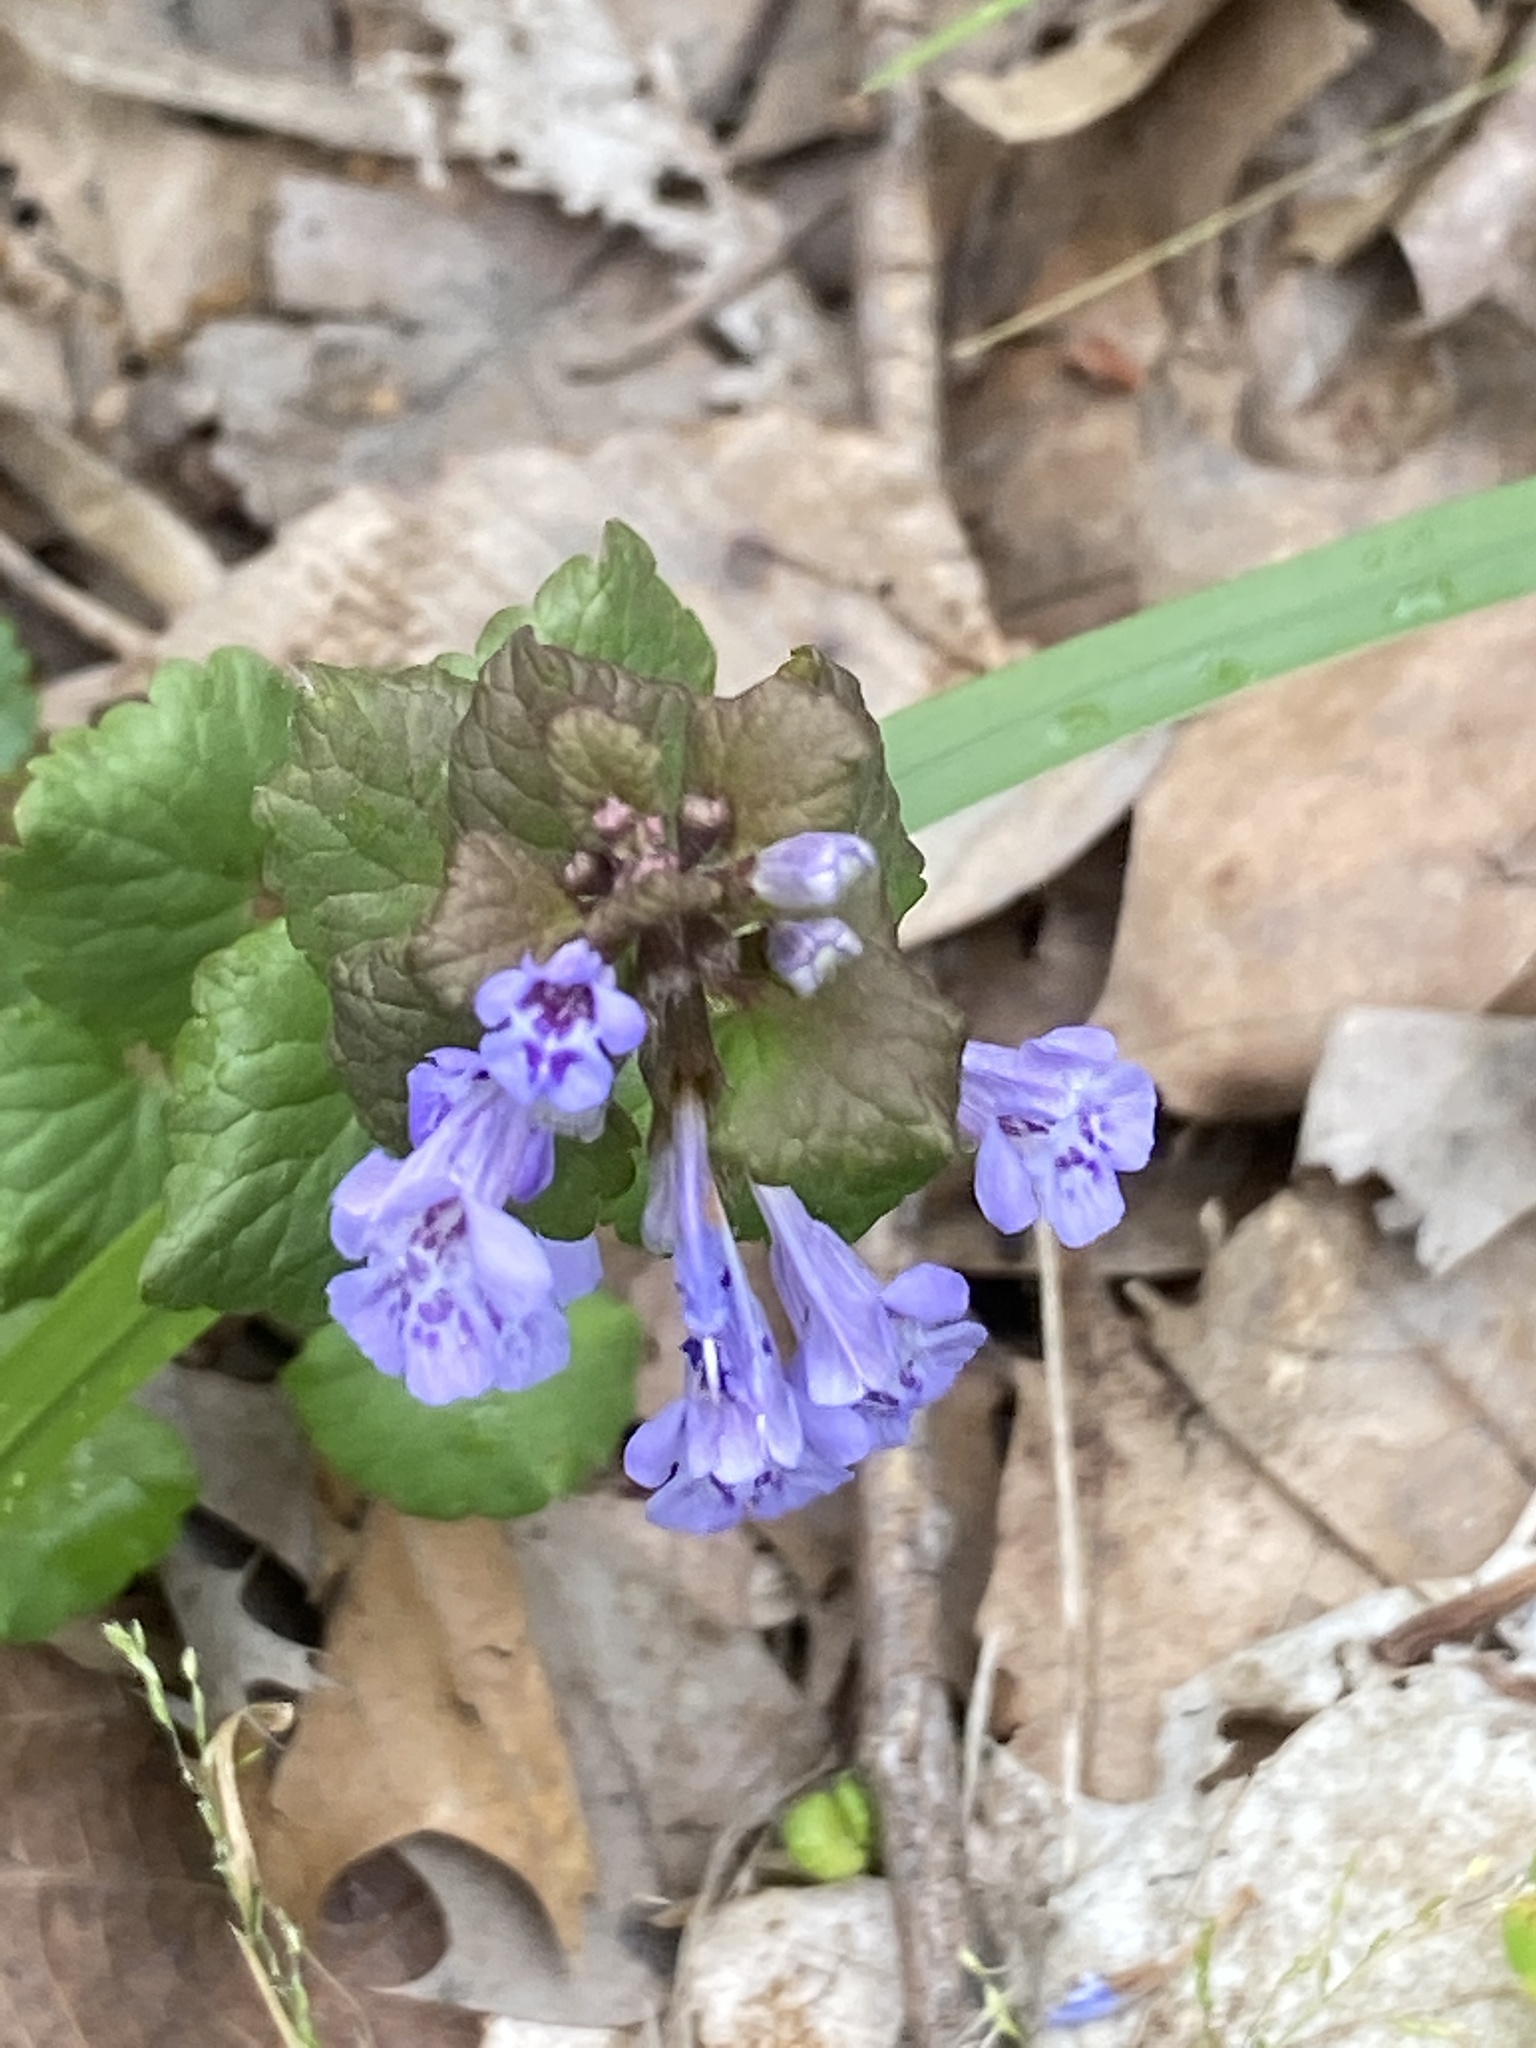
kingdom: Plantae
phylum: Tracheophyta
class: Magnoliopsida
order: Lamiales
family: Lamiaceae
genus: Glechoma
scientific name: Glechoma hederacea
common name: Ground ivy
